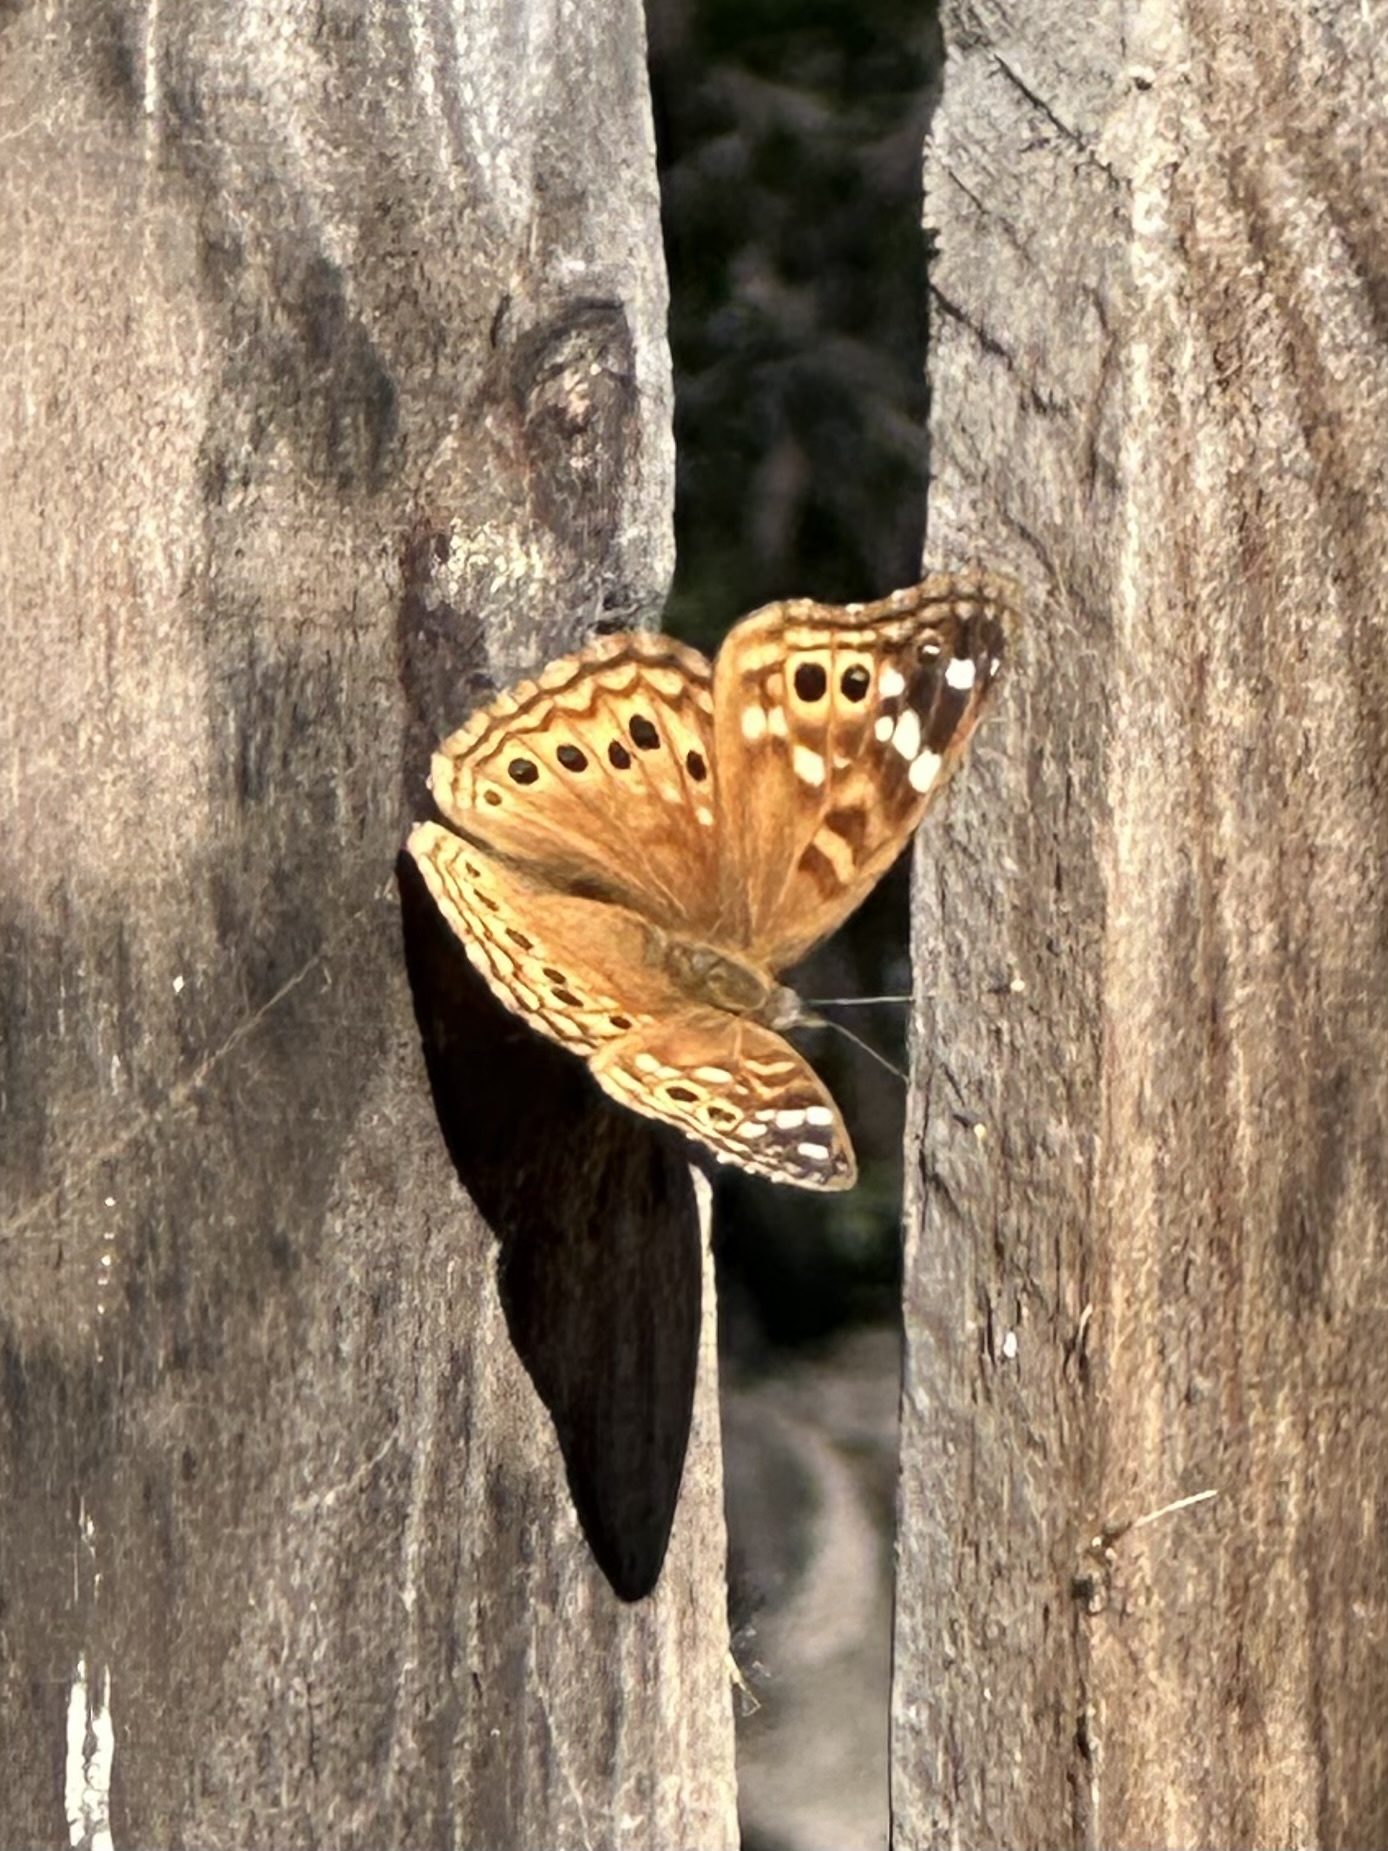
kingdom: Animalia
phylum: Arthropoda
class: Insecta
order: Lepidoptera
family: Nymphalidae
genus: Asterocampa
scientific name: Asterocampa leilia
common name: Empress leilia
